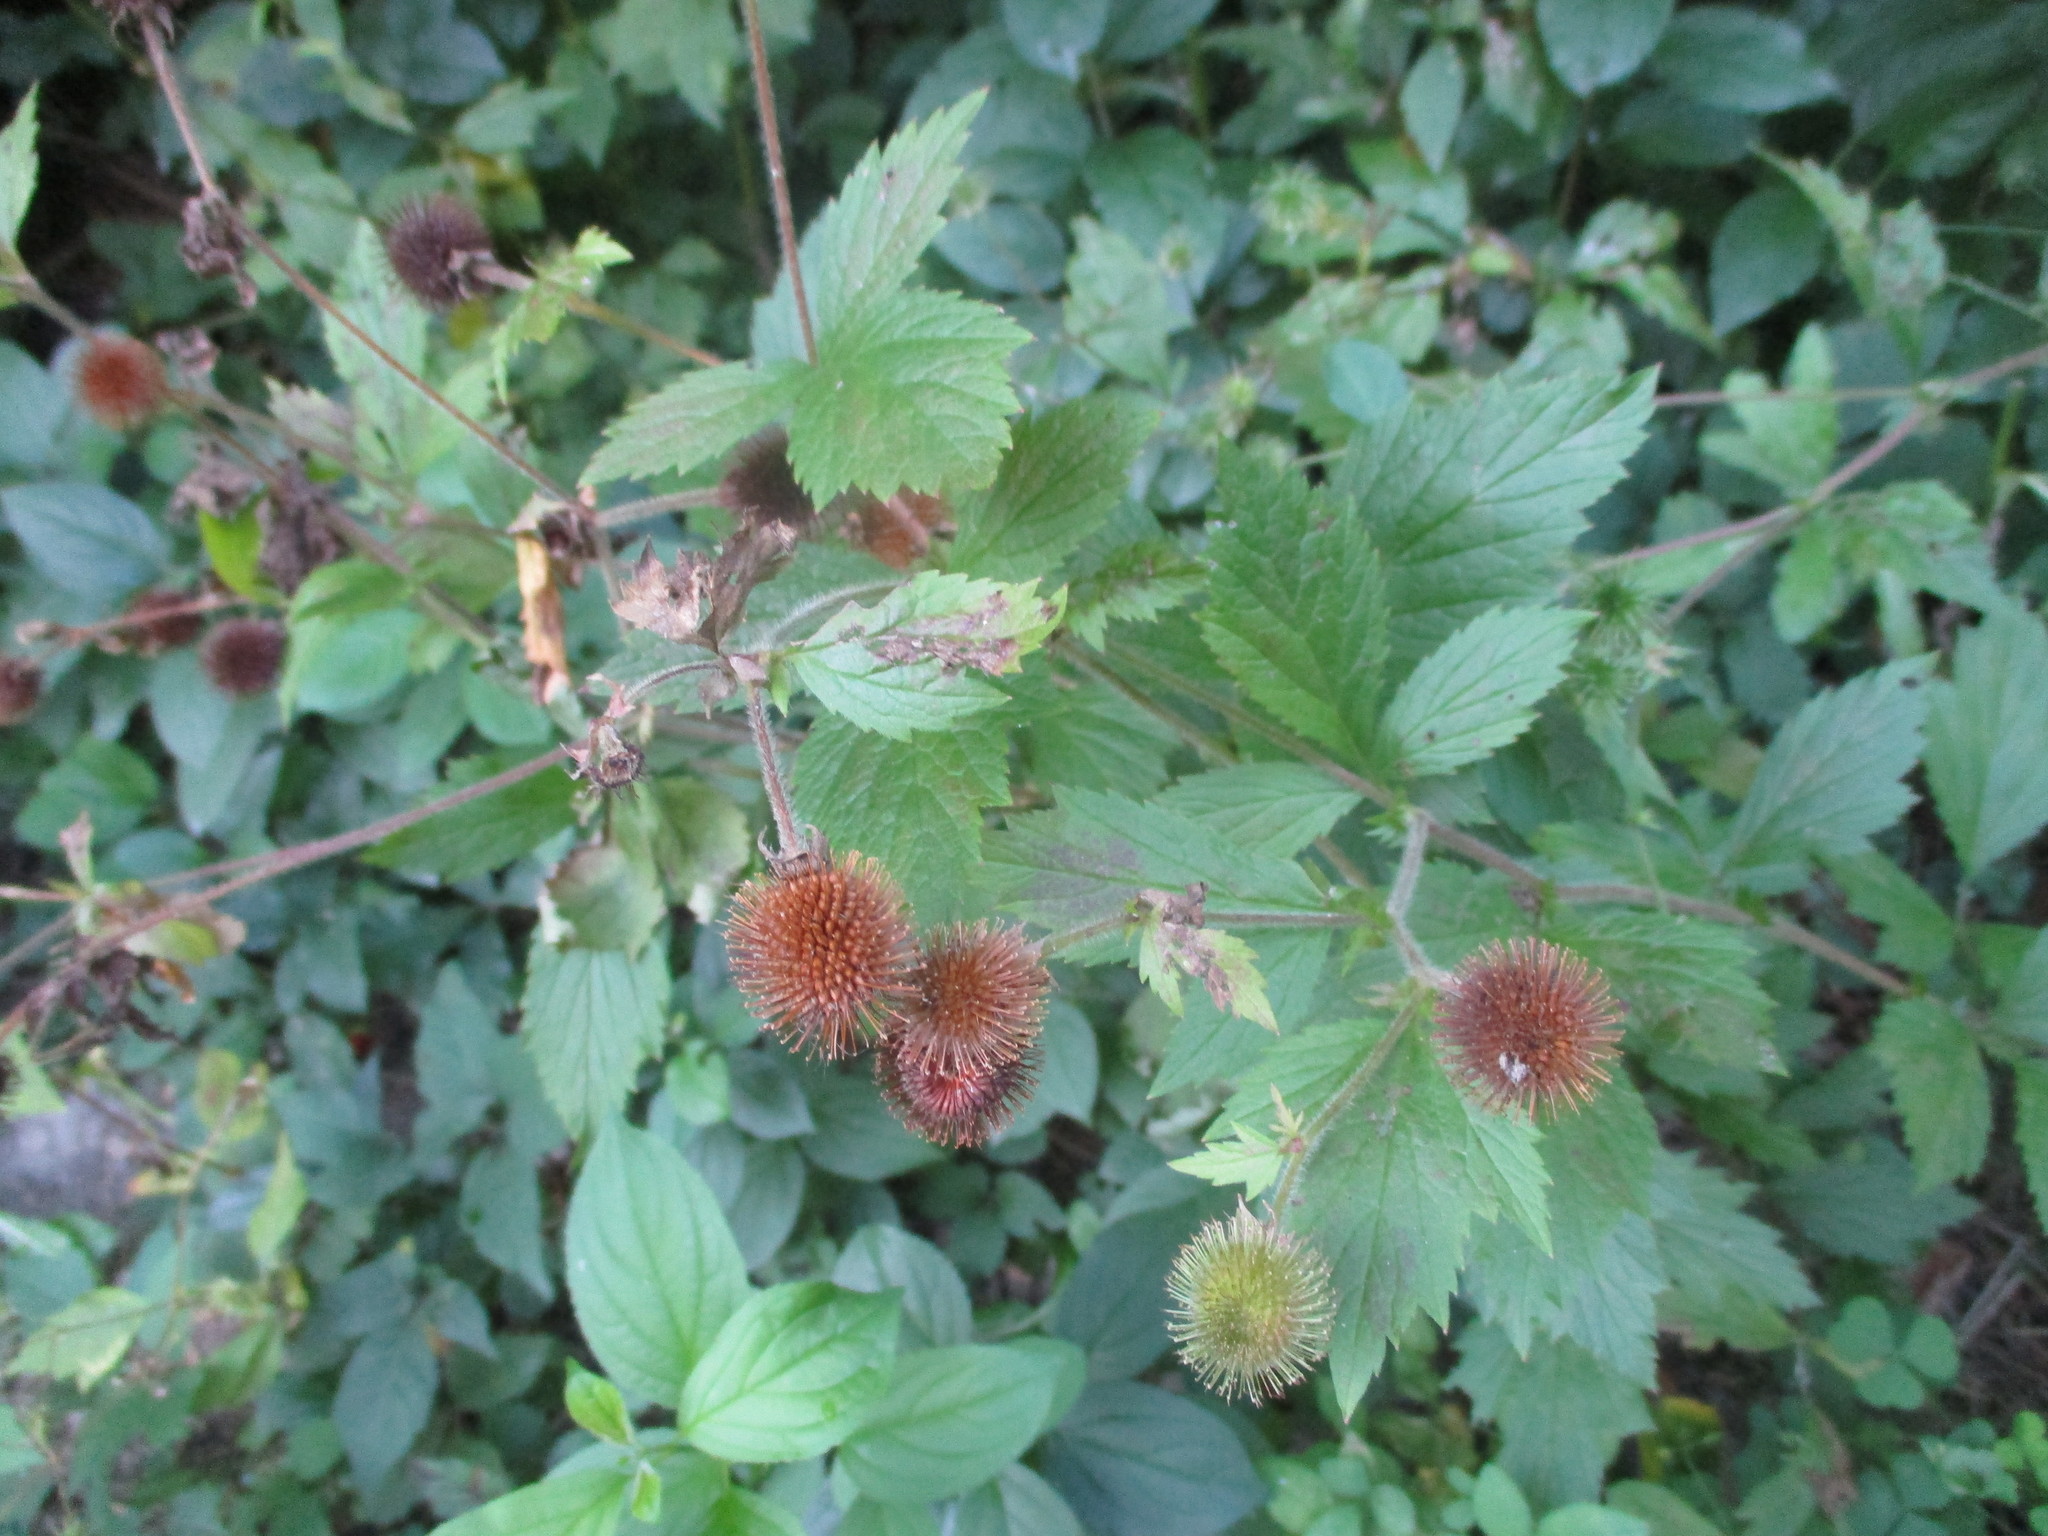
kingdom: Plantae
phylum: Tracheophyta
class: Magnoliopsida
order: Rosales
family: Rosaceae
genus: Geum
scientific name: Geum laciniatum
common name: Rough avens
